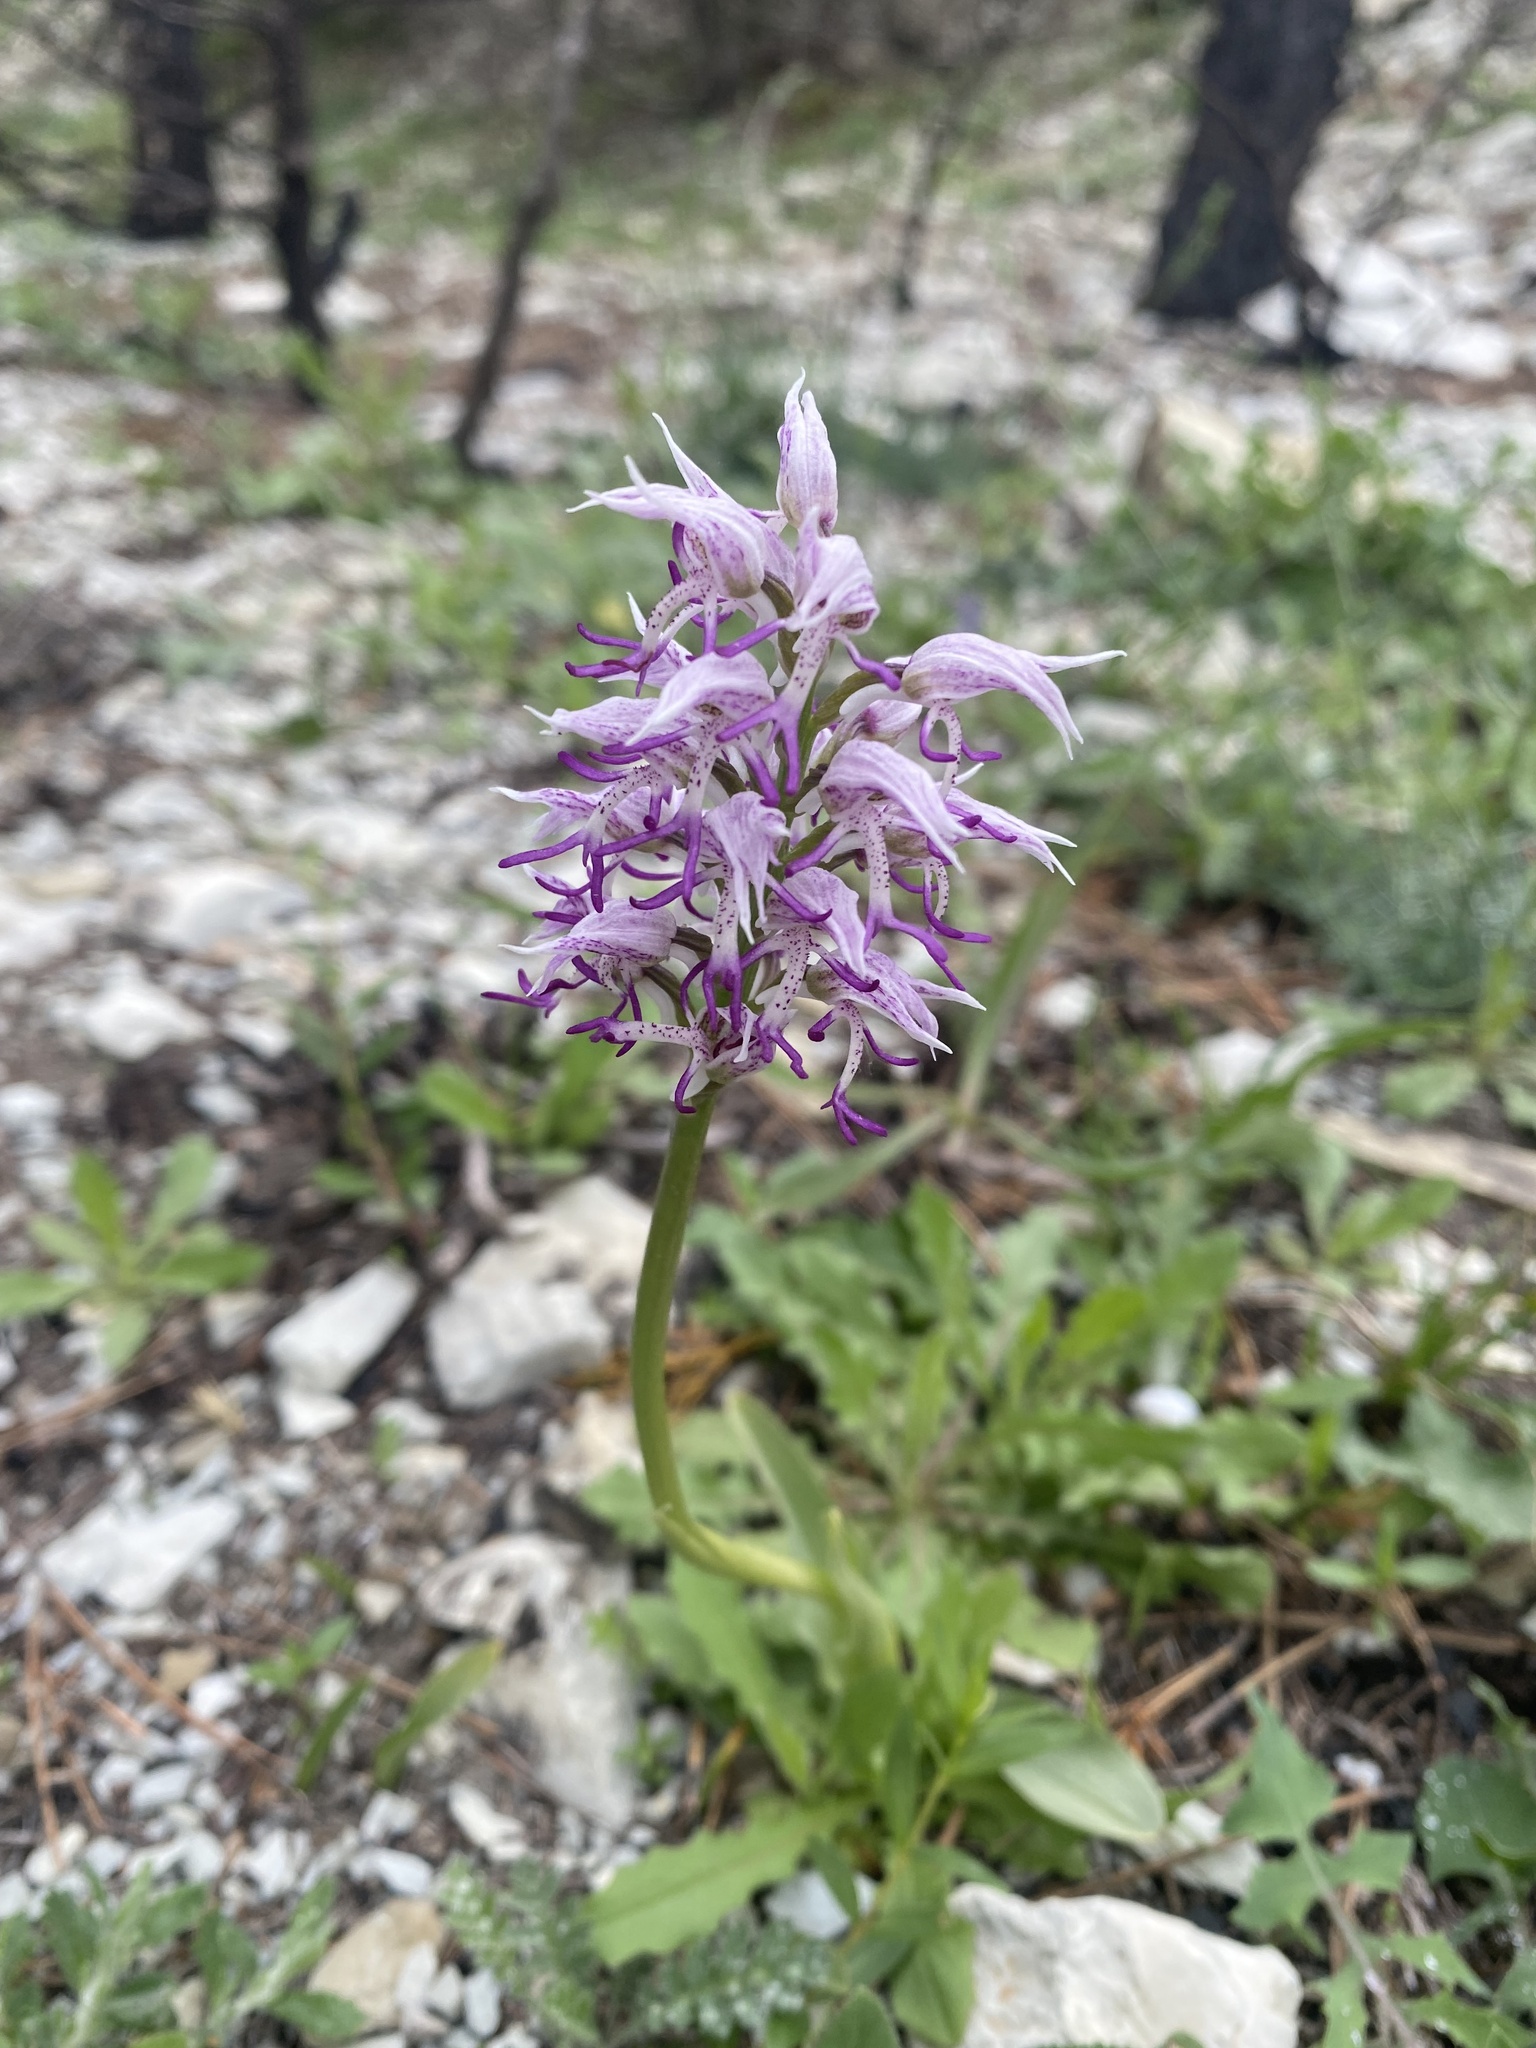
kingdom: Plantae
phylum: Tracheophyta
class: Liliopsida
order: Asparagales
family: Orchidaceae
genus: Orchis
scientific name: Orchis simia
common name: Monkey orchid
